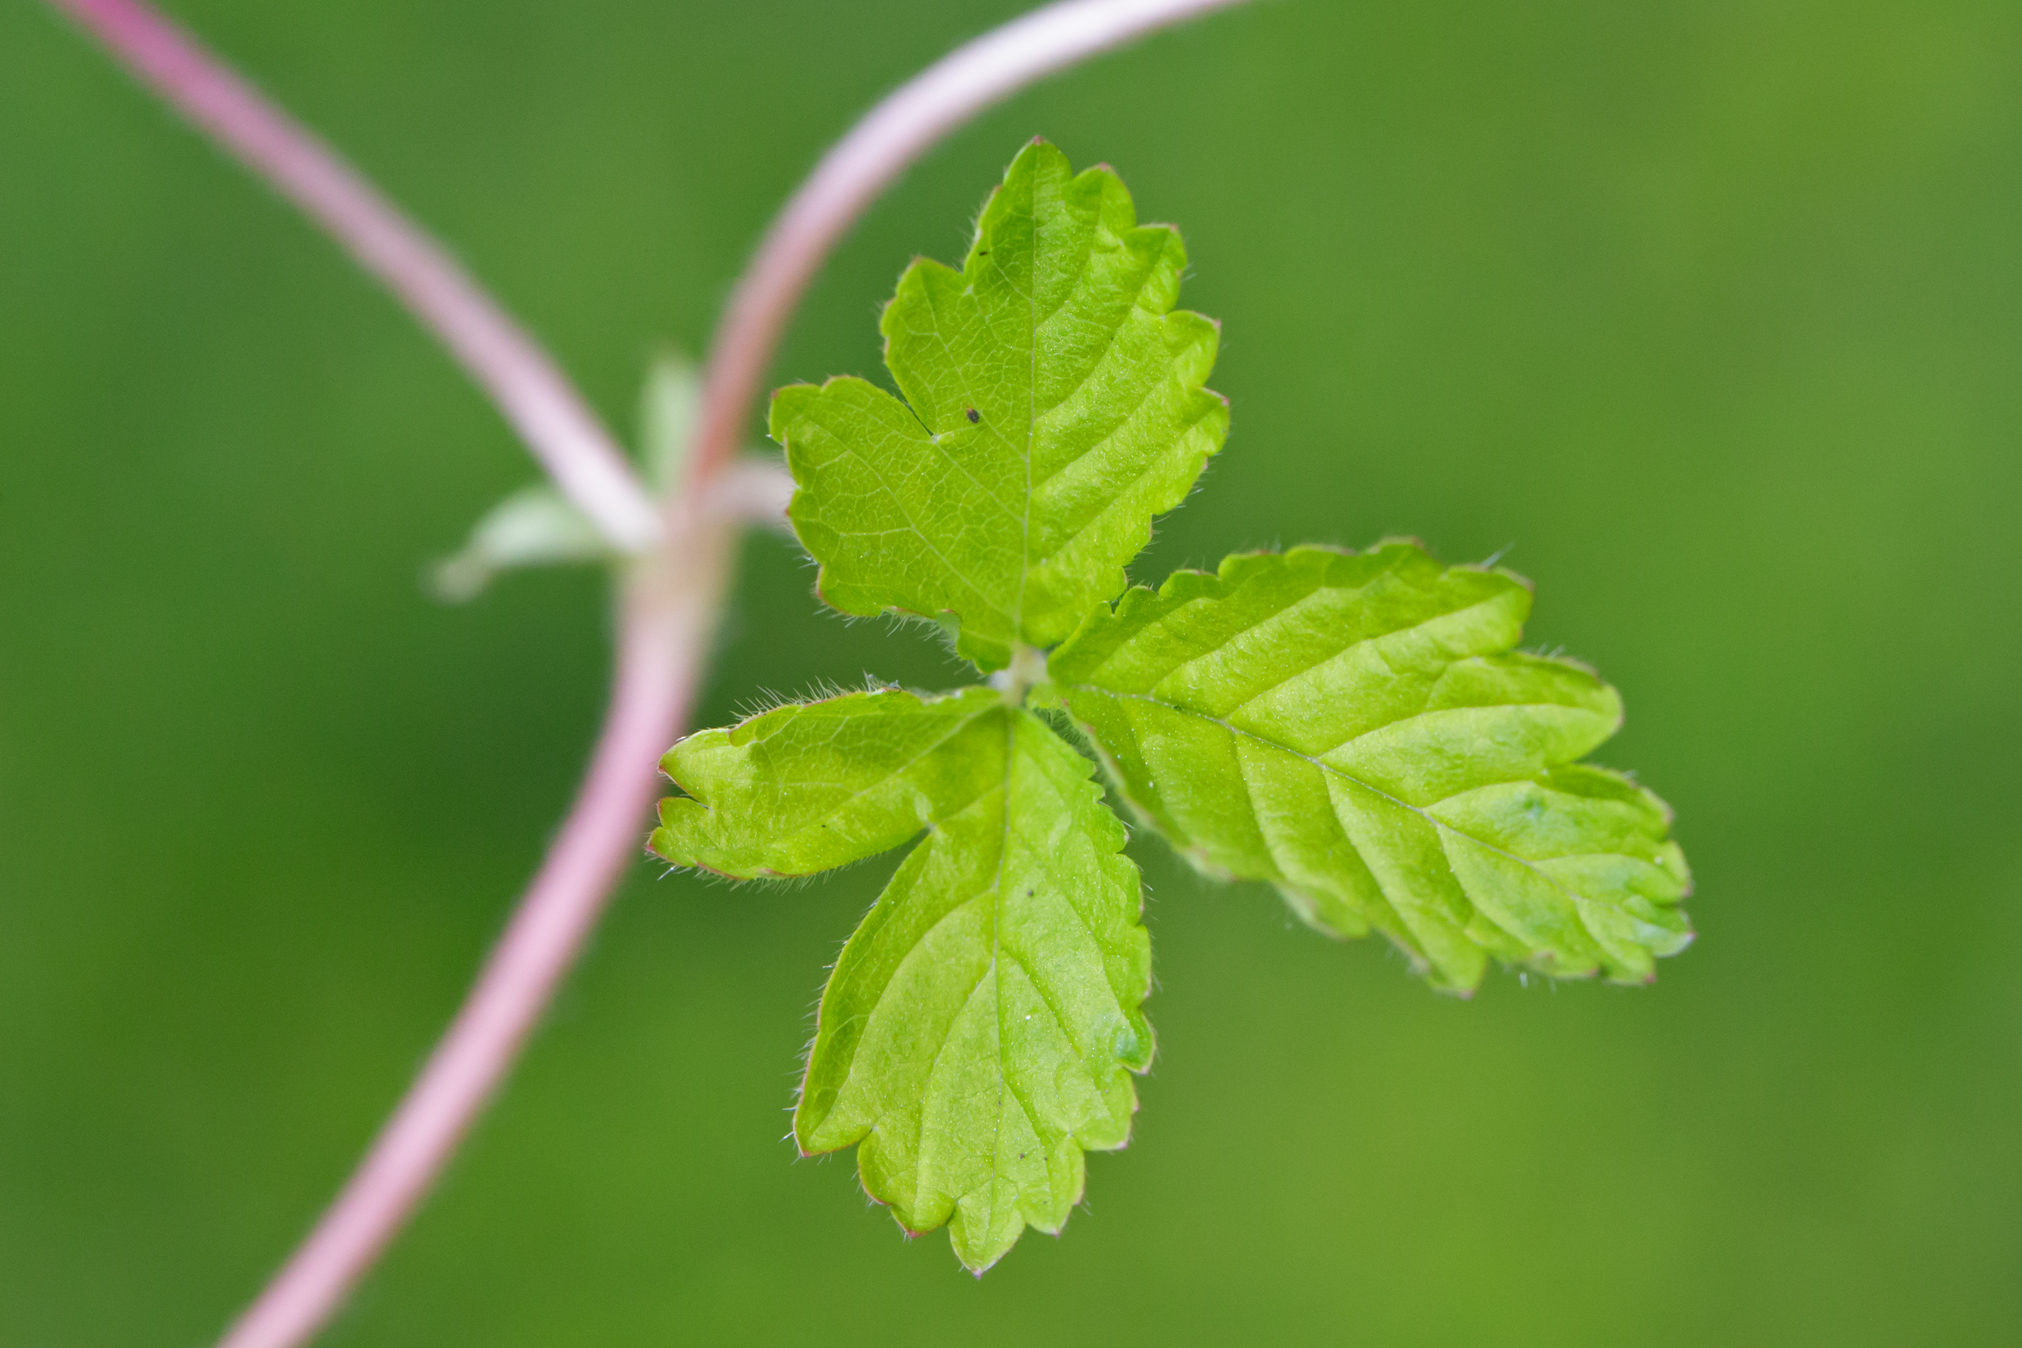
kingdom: Plantae
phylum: Tracheophyta
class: Magnoliopsida
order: Rosales
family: Rosaceae
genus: Potentilla
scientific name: Potentilla indica
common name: Yellow-flowered strawberry
